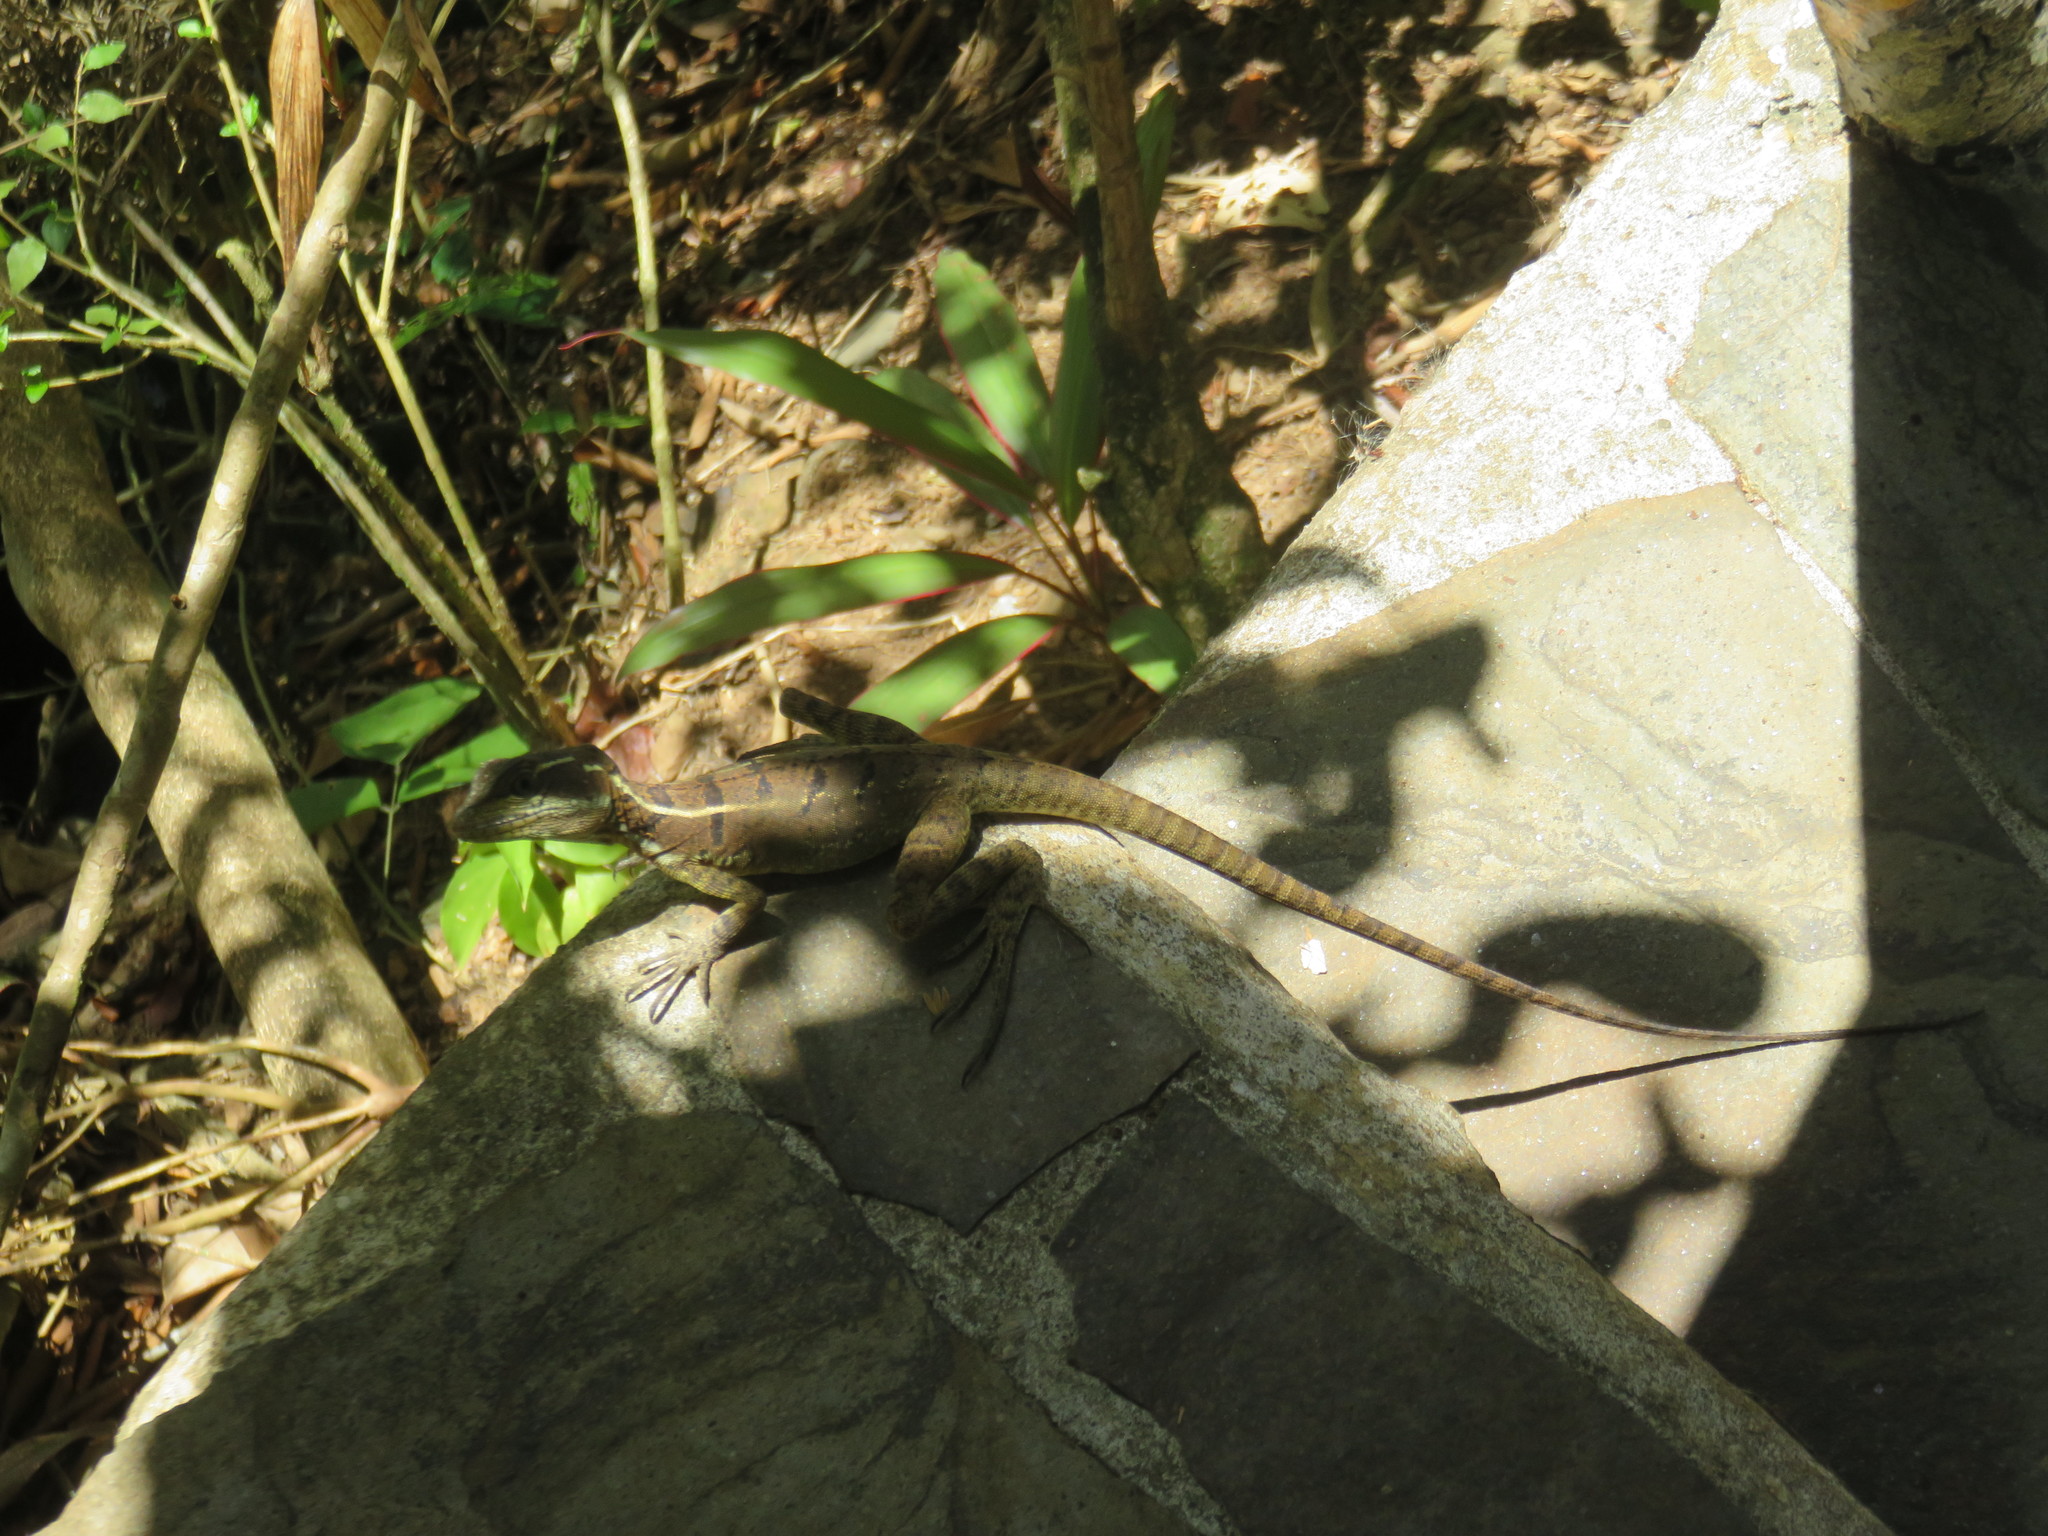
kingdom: Animalia
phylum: Chordata
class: Squamata
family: Corytophanidae
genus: Basiliscus
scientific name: Basiliscus basiliscus
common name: Common basilisk
